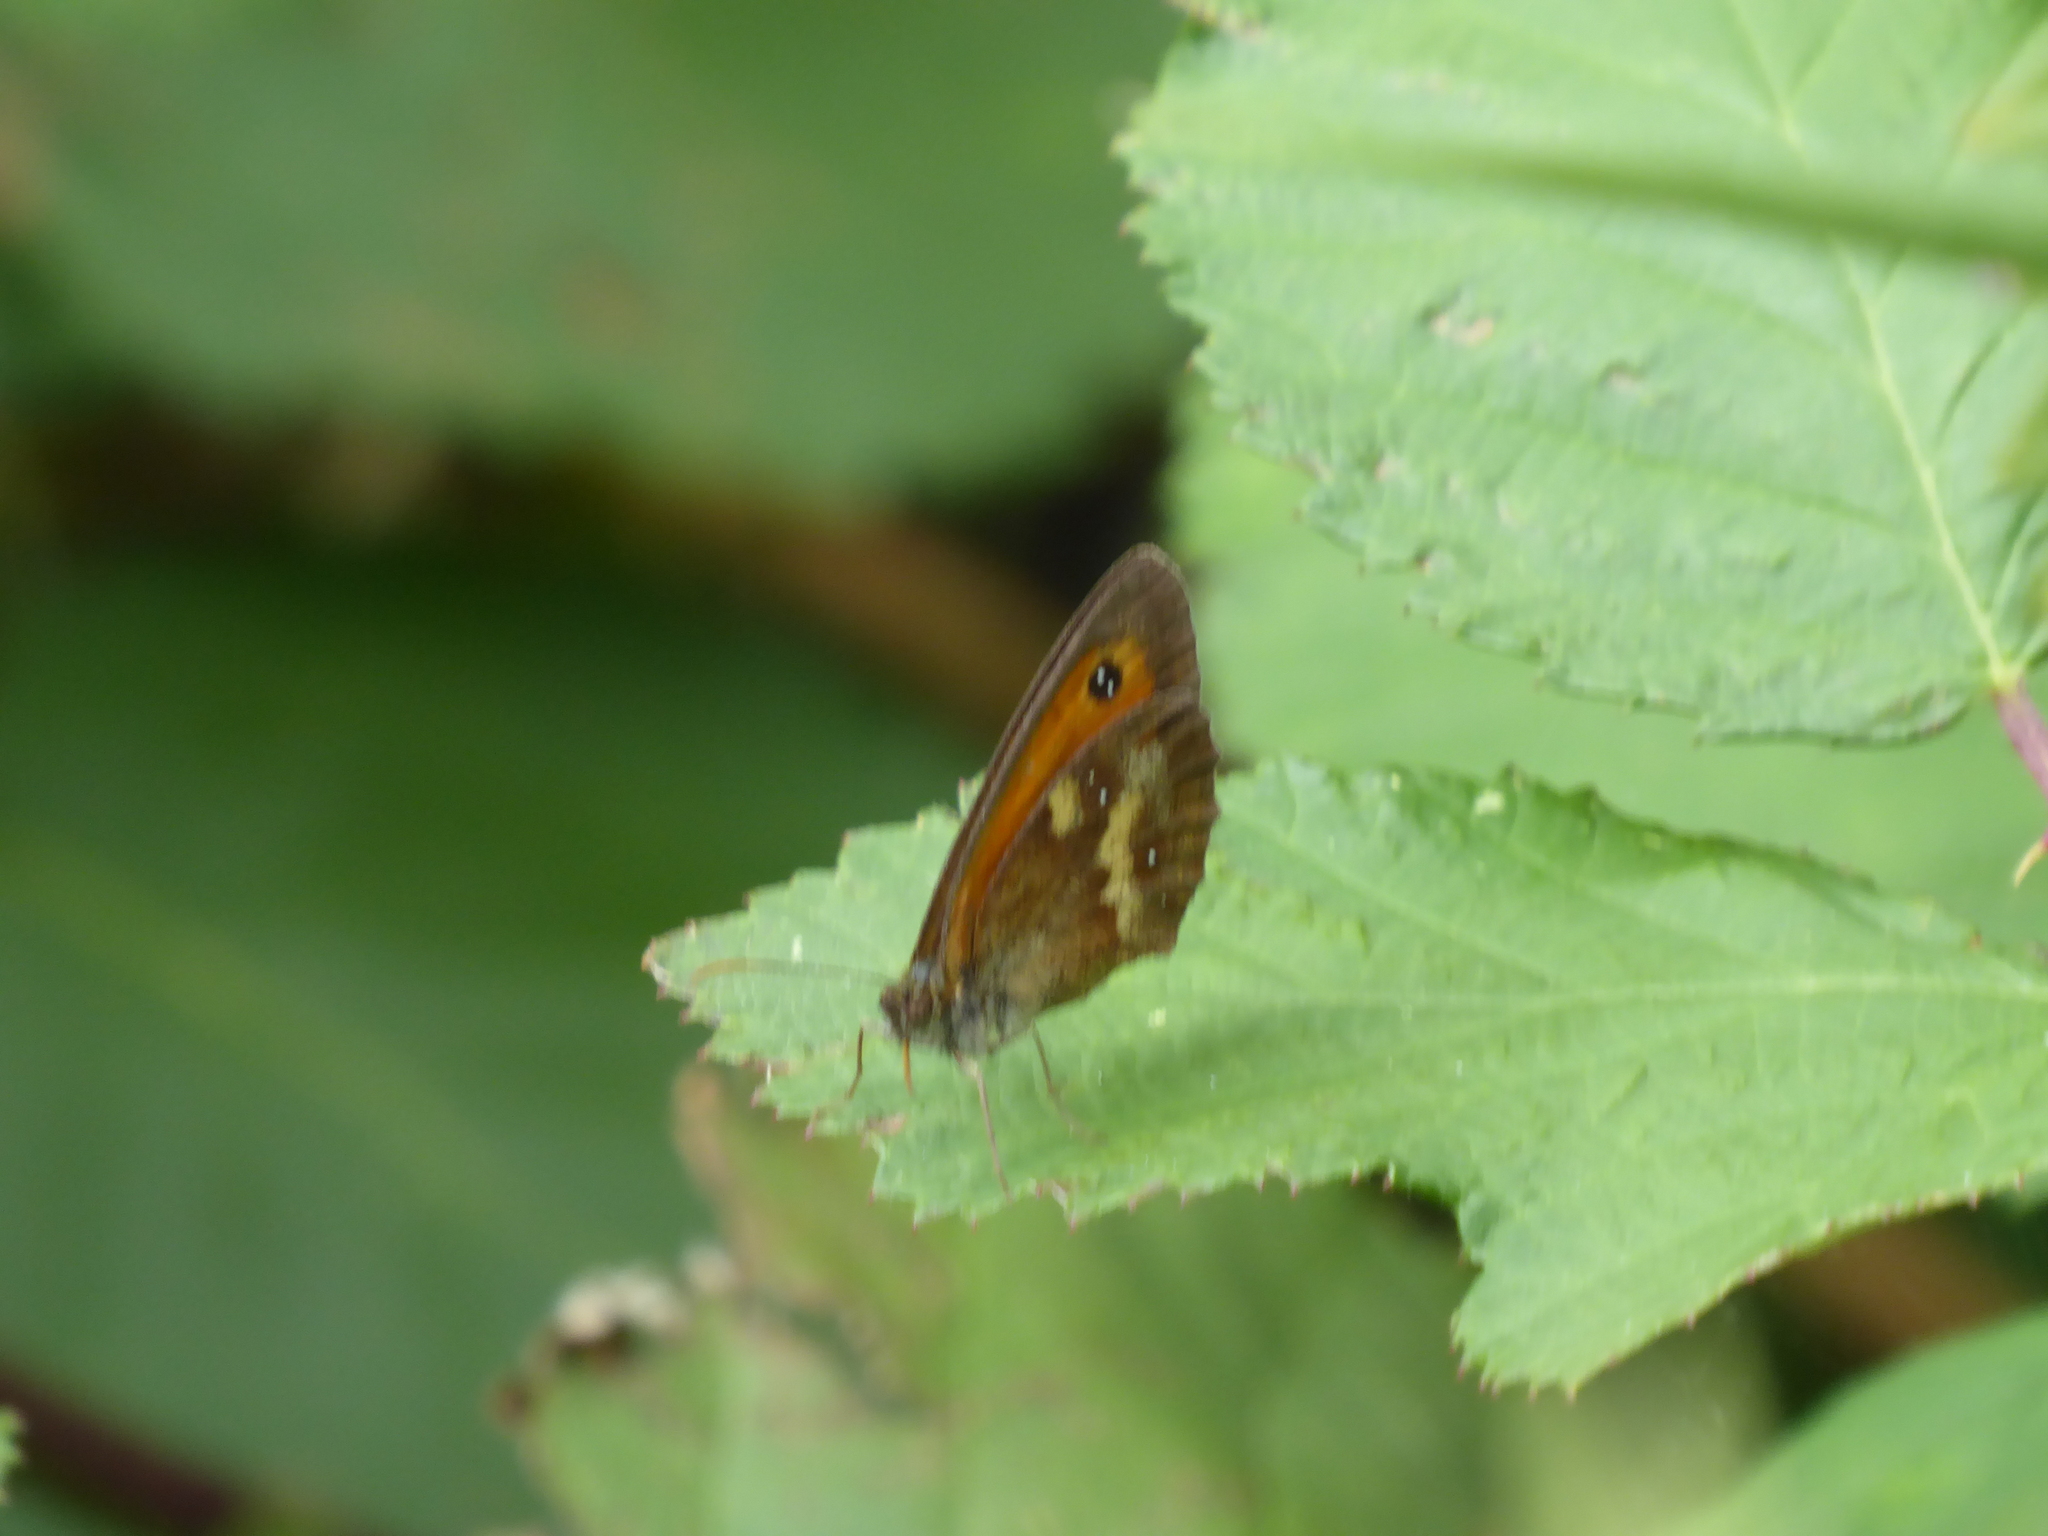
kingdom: Animalia
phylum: Arthropoda
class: Insecta
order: Lepidoptera
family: Nymphalidae
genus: Pyronia
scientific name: Pyronia tithonus
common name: Gatekeeper
